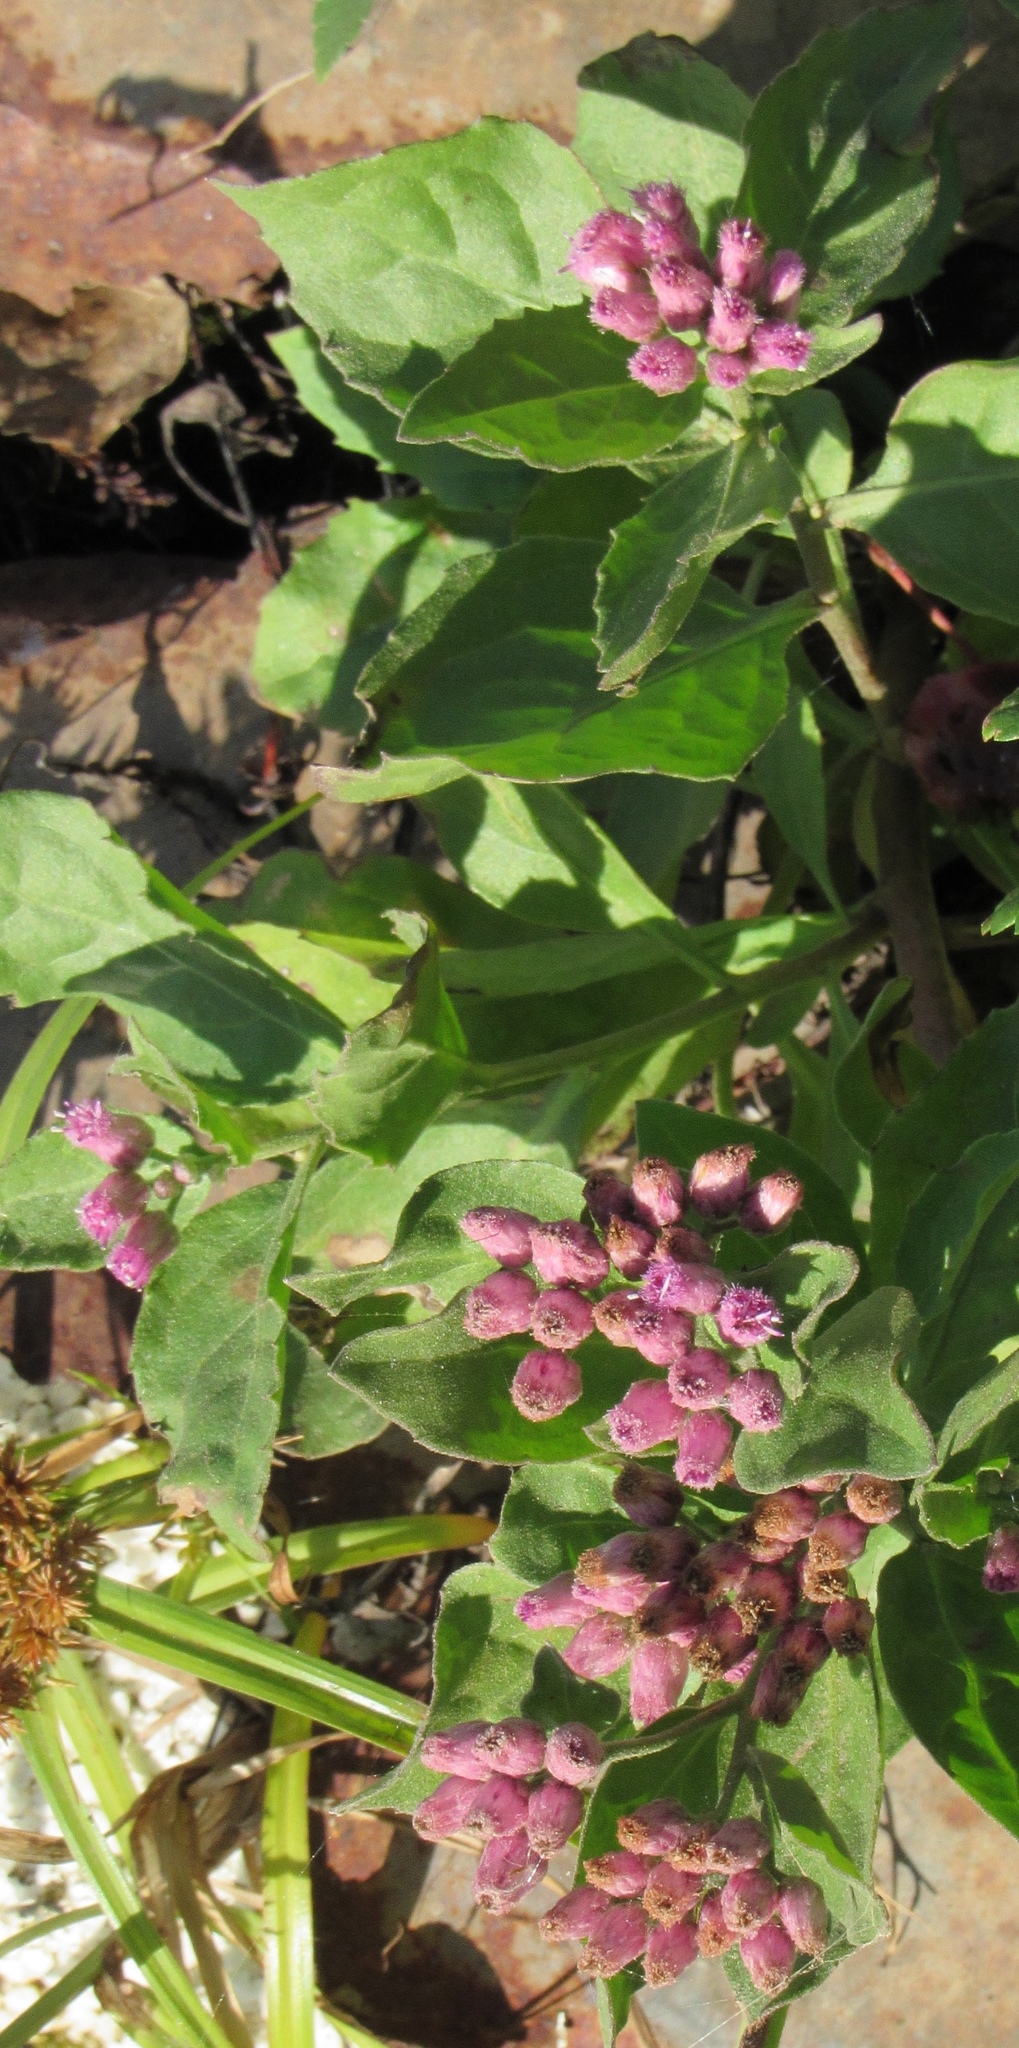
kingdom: Plantae
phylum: Tracheophyta
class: Magnoliopsida
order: Asterales
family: Asteraceae
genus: Pluchea
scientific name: Pluchea odorata
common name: Saltmarsh fleabane
